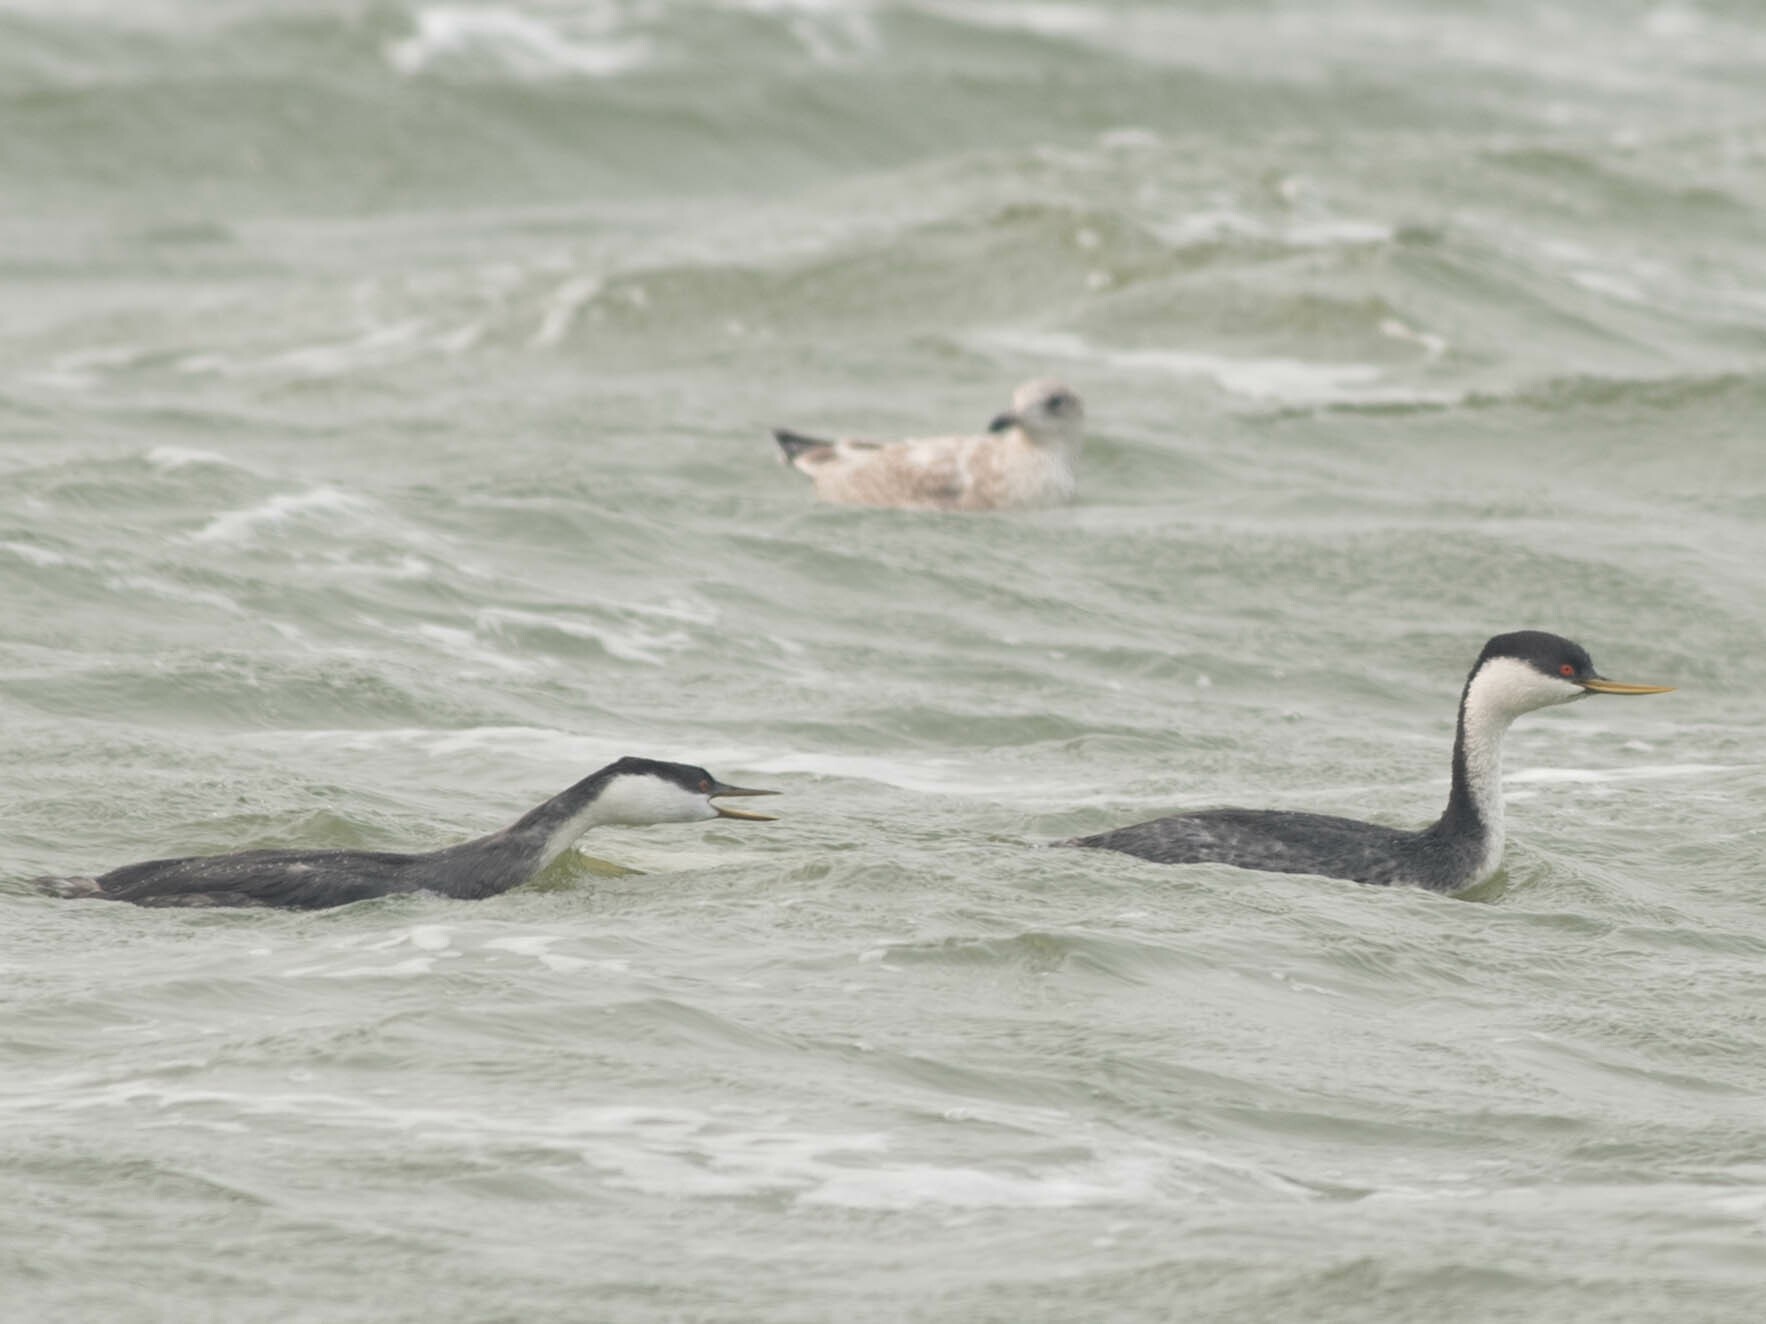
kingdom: Animalia
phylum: Chordata
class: Aves
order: Podicipediformes
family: Podicipedidae
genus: Aechmophorus
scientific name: Aechmophorus occidentalis
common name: Western grebe
